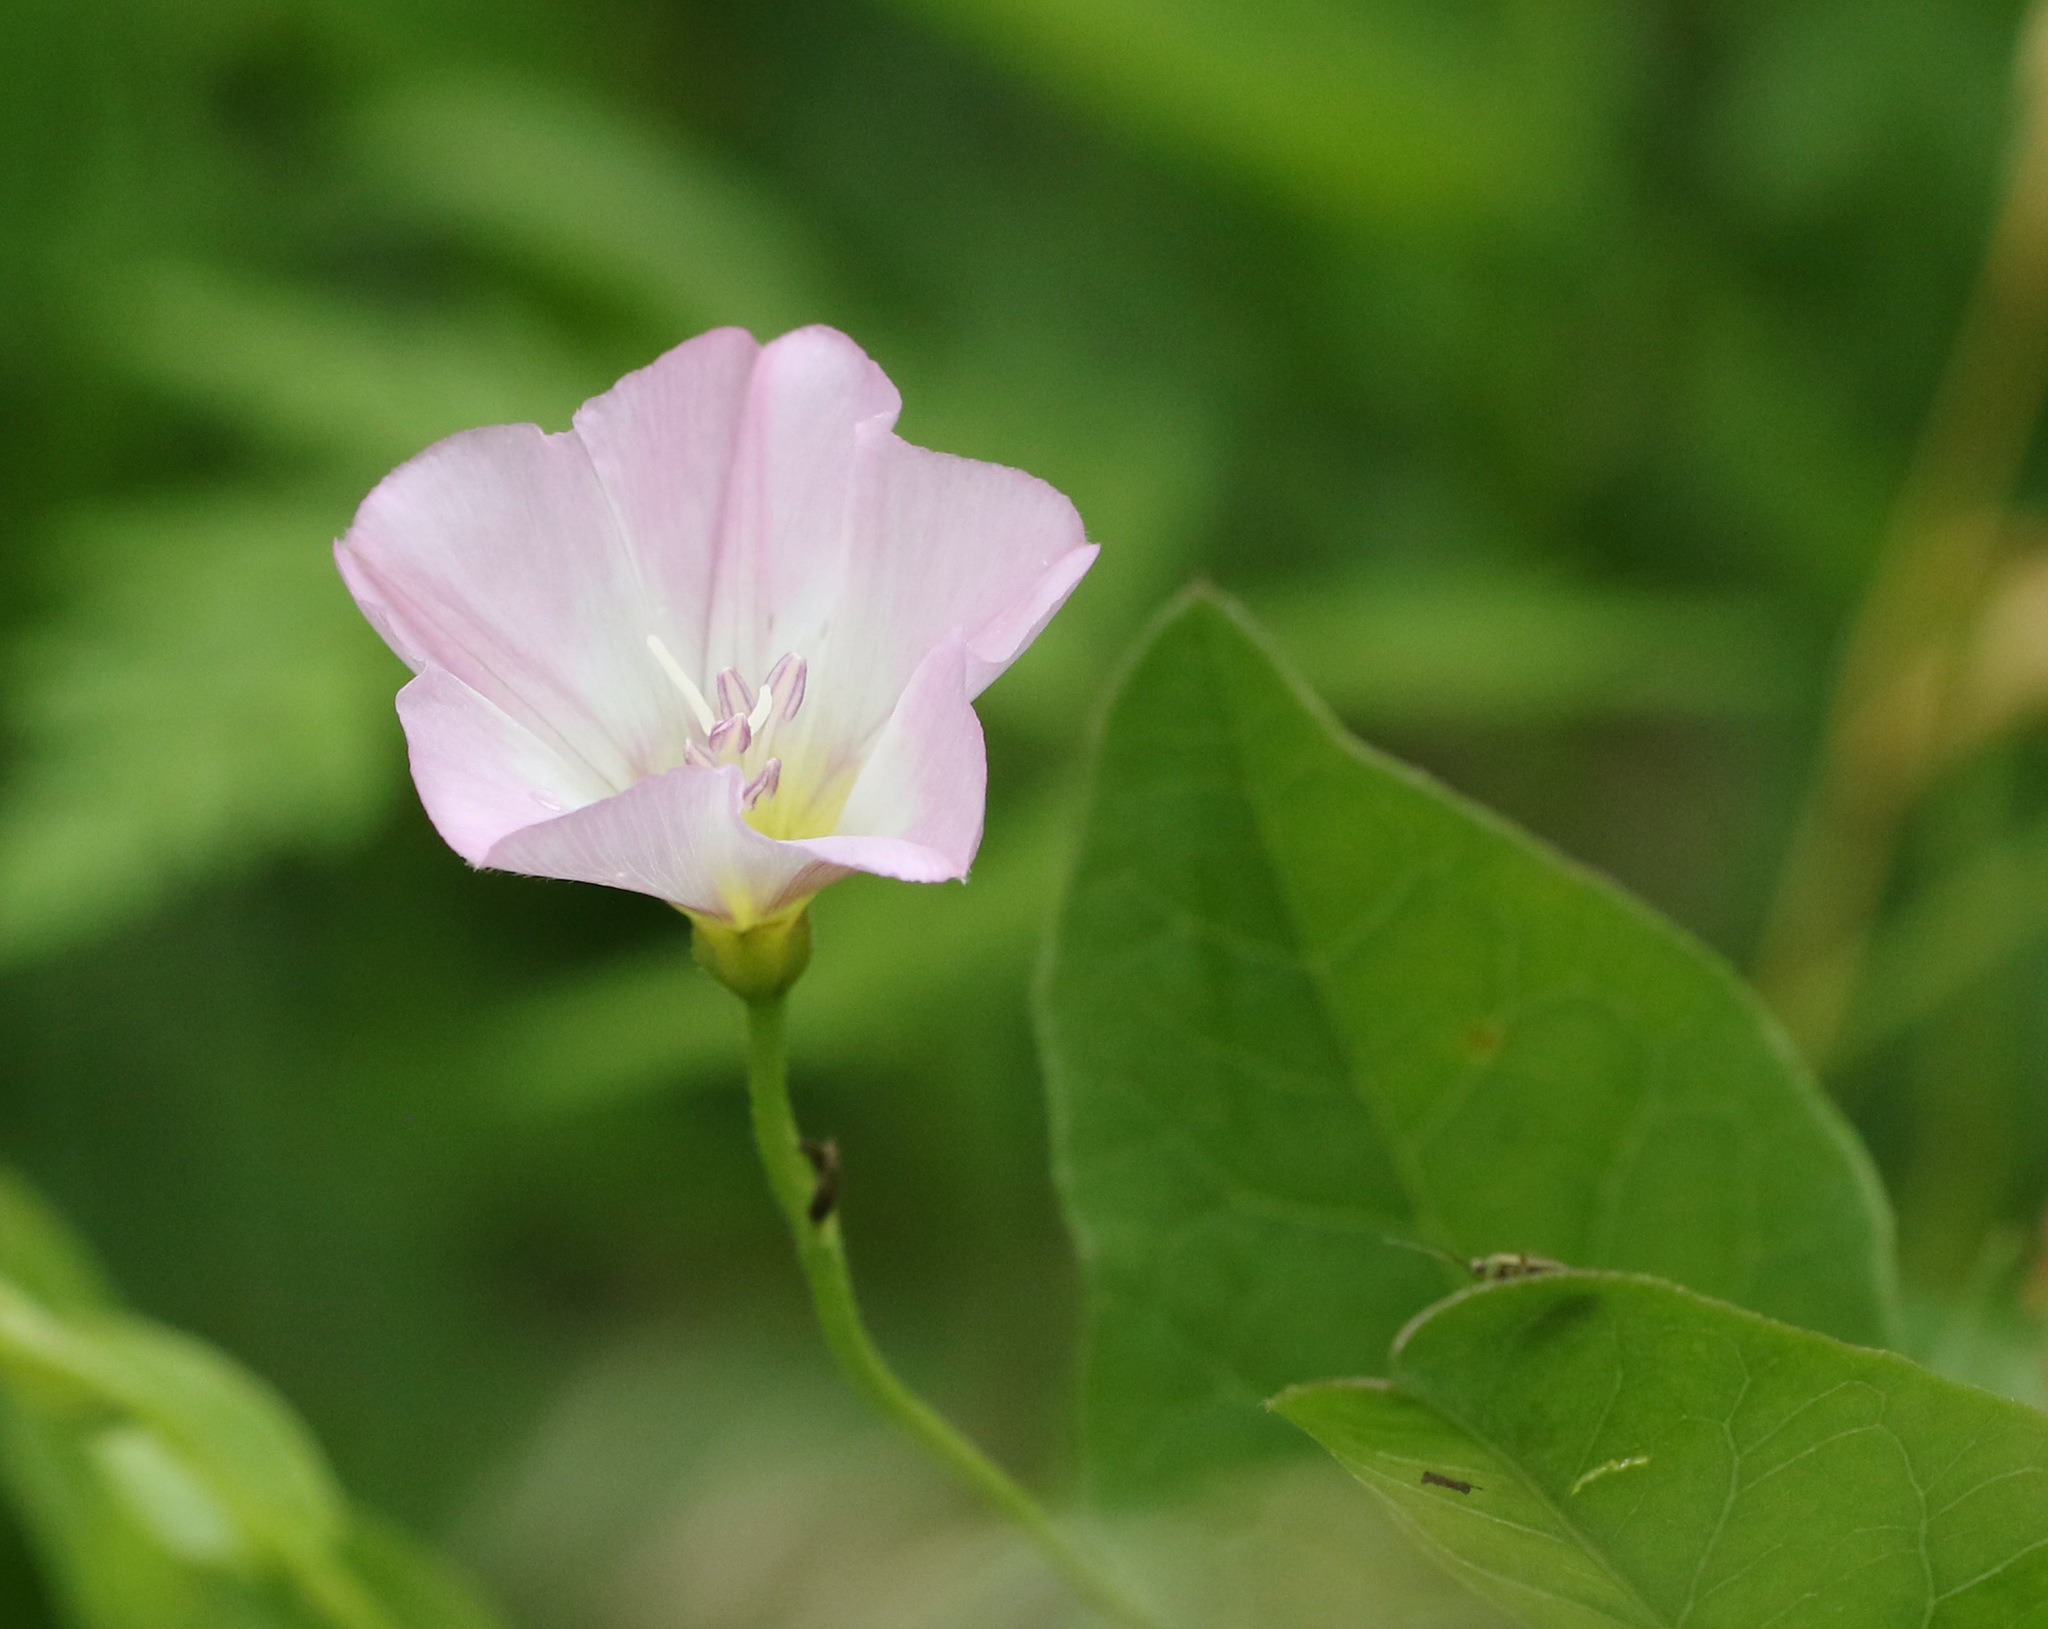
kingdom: Plantae
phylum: Tracheophyta
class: Magnoliopsida
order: Solanales
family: Convolvulaceae
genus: Convolvulus
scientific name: Convolvulus arvensis
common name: Field bindweed
